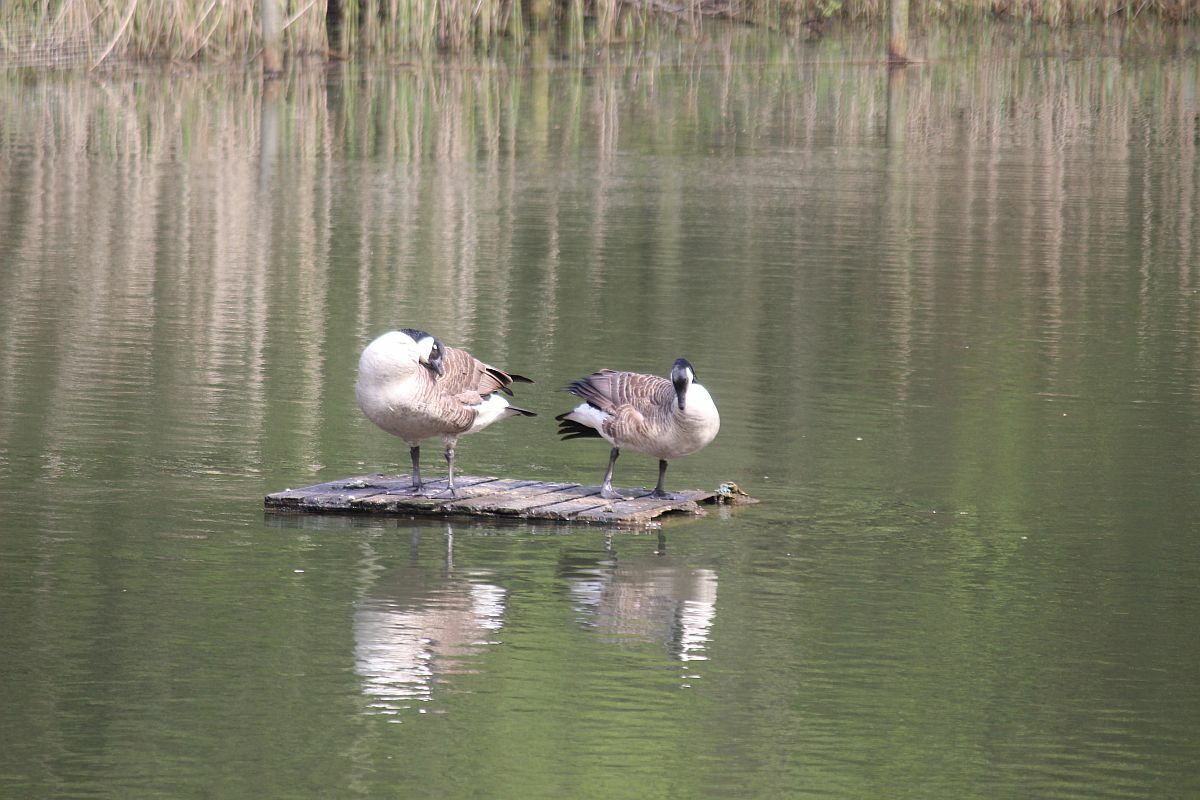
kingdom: Animalia
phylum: Chordata
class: Aves
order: Anseriformes
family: Anatidae
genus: Branta
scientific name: Branta canadensis
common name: Canada goose
